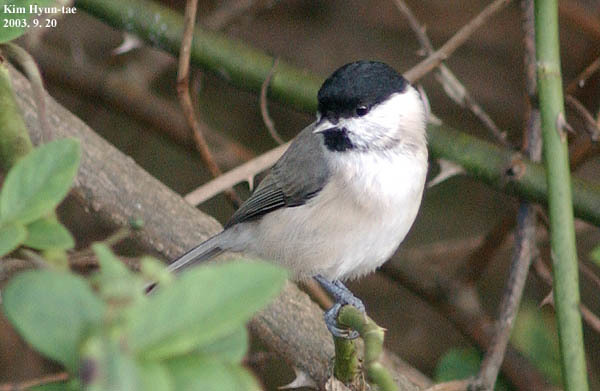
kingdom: Animalia
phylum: Chordata
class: Aves
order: Passeriformes
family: Paridae
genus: Poecile
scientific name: Poecile palustris
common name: Marsh tit
